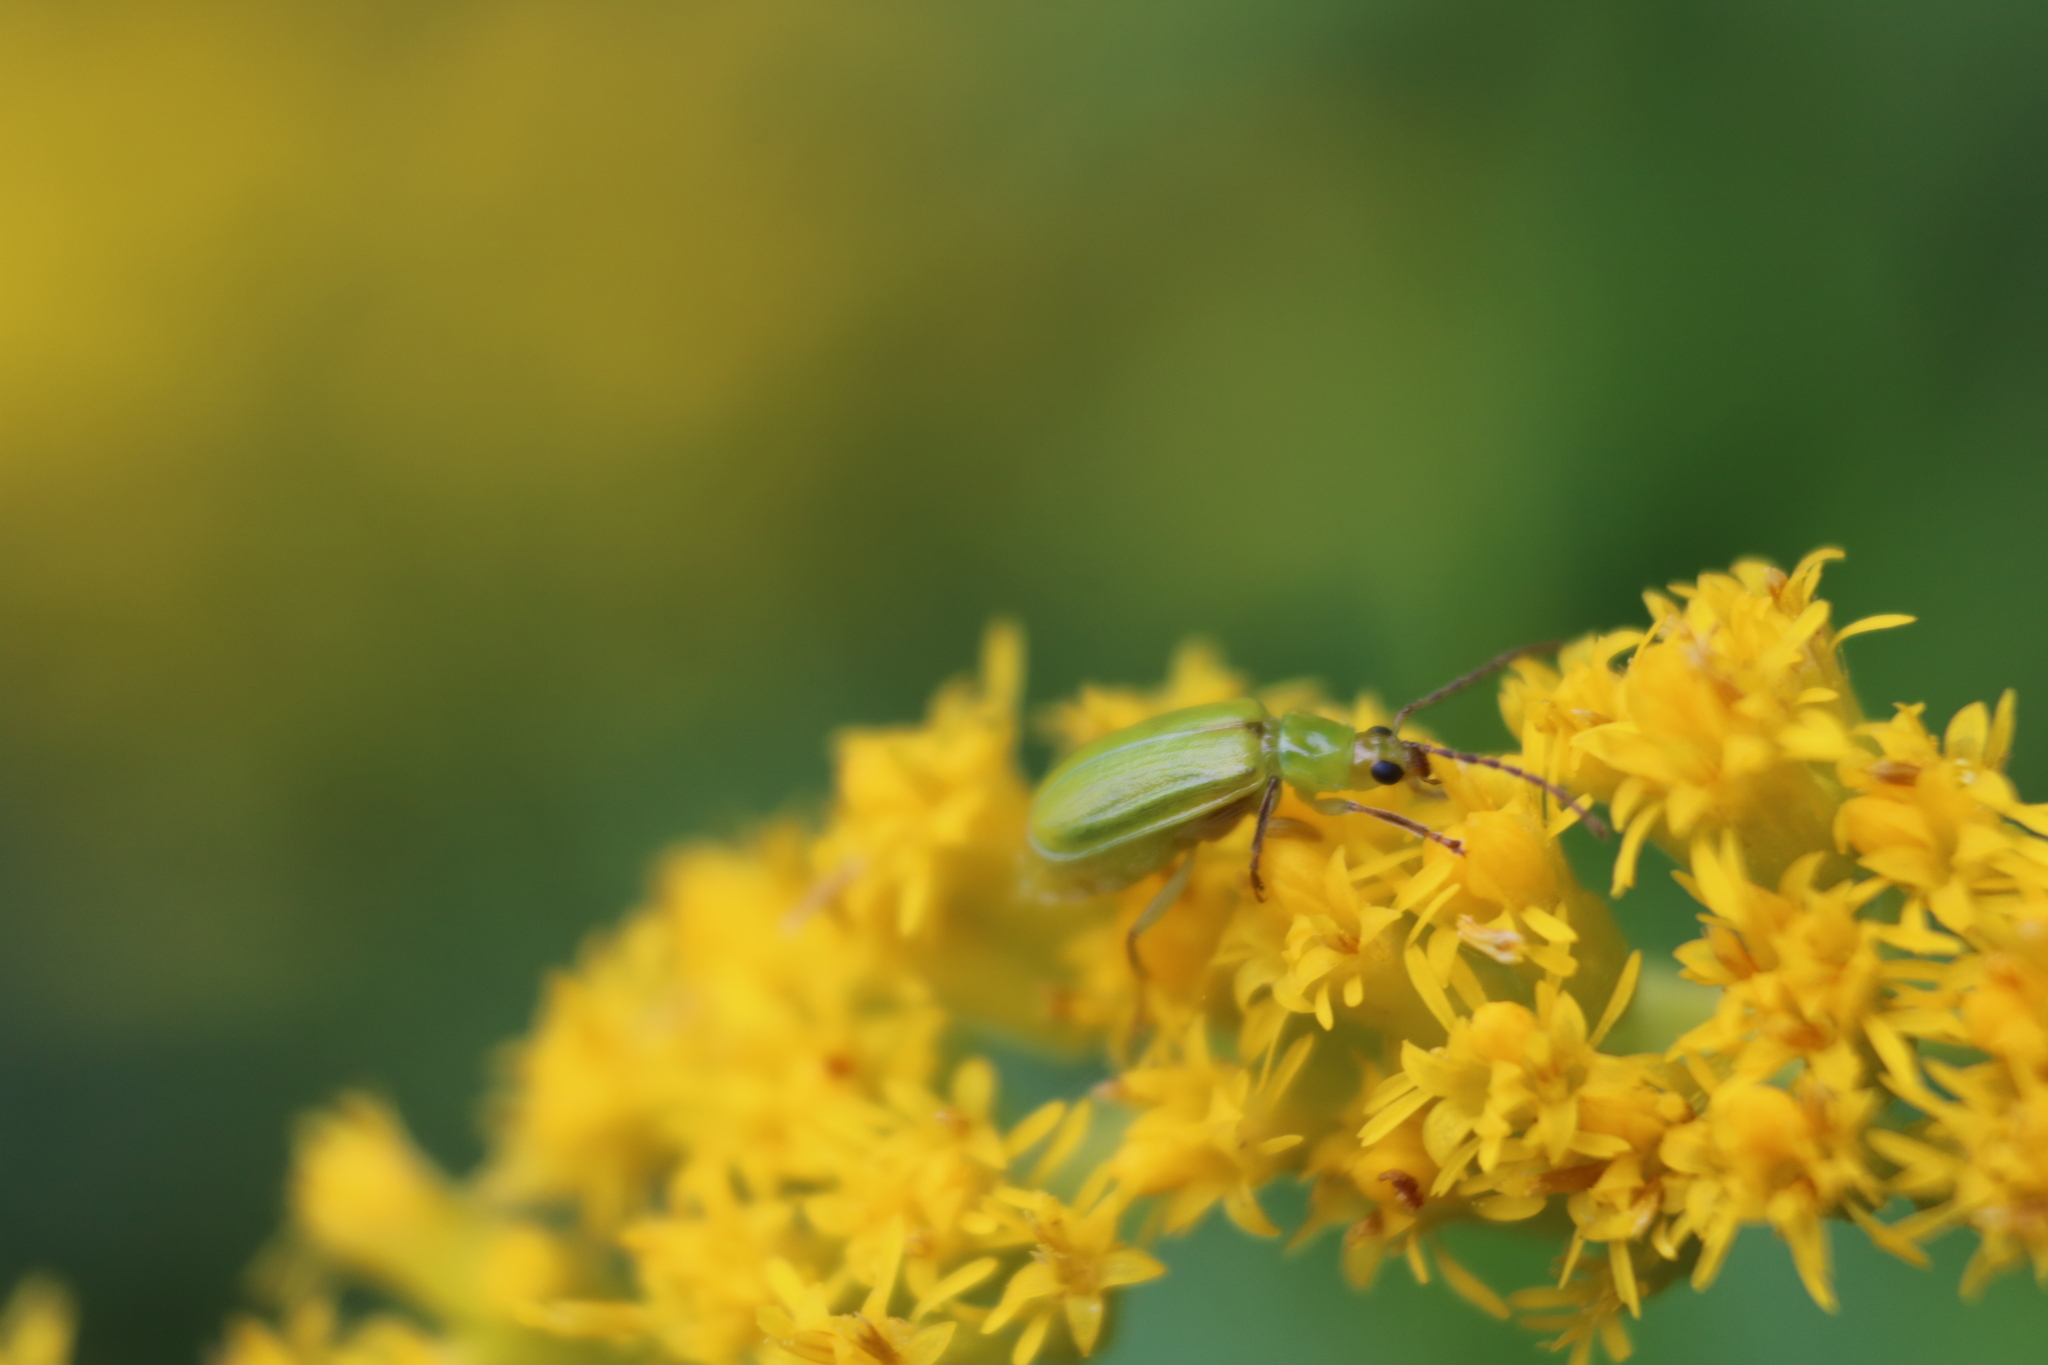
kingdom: Animalia
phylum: Arthropoda
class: Insecta
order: Coleoptera
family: Chrysomelidae
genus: Diabrotica
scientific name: Diabrotica barberi
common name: Northern corn rootworm
